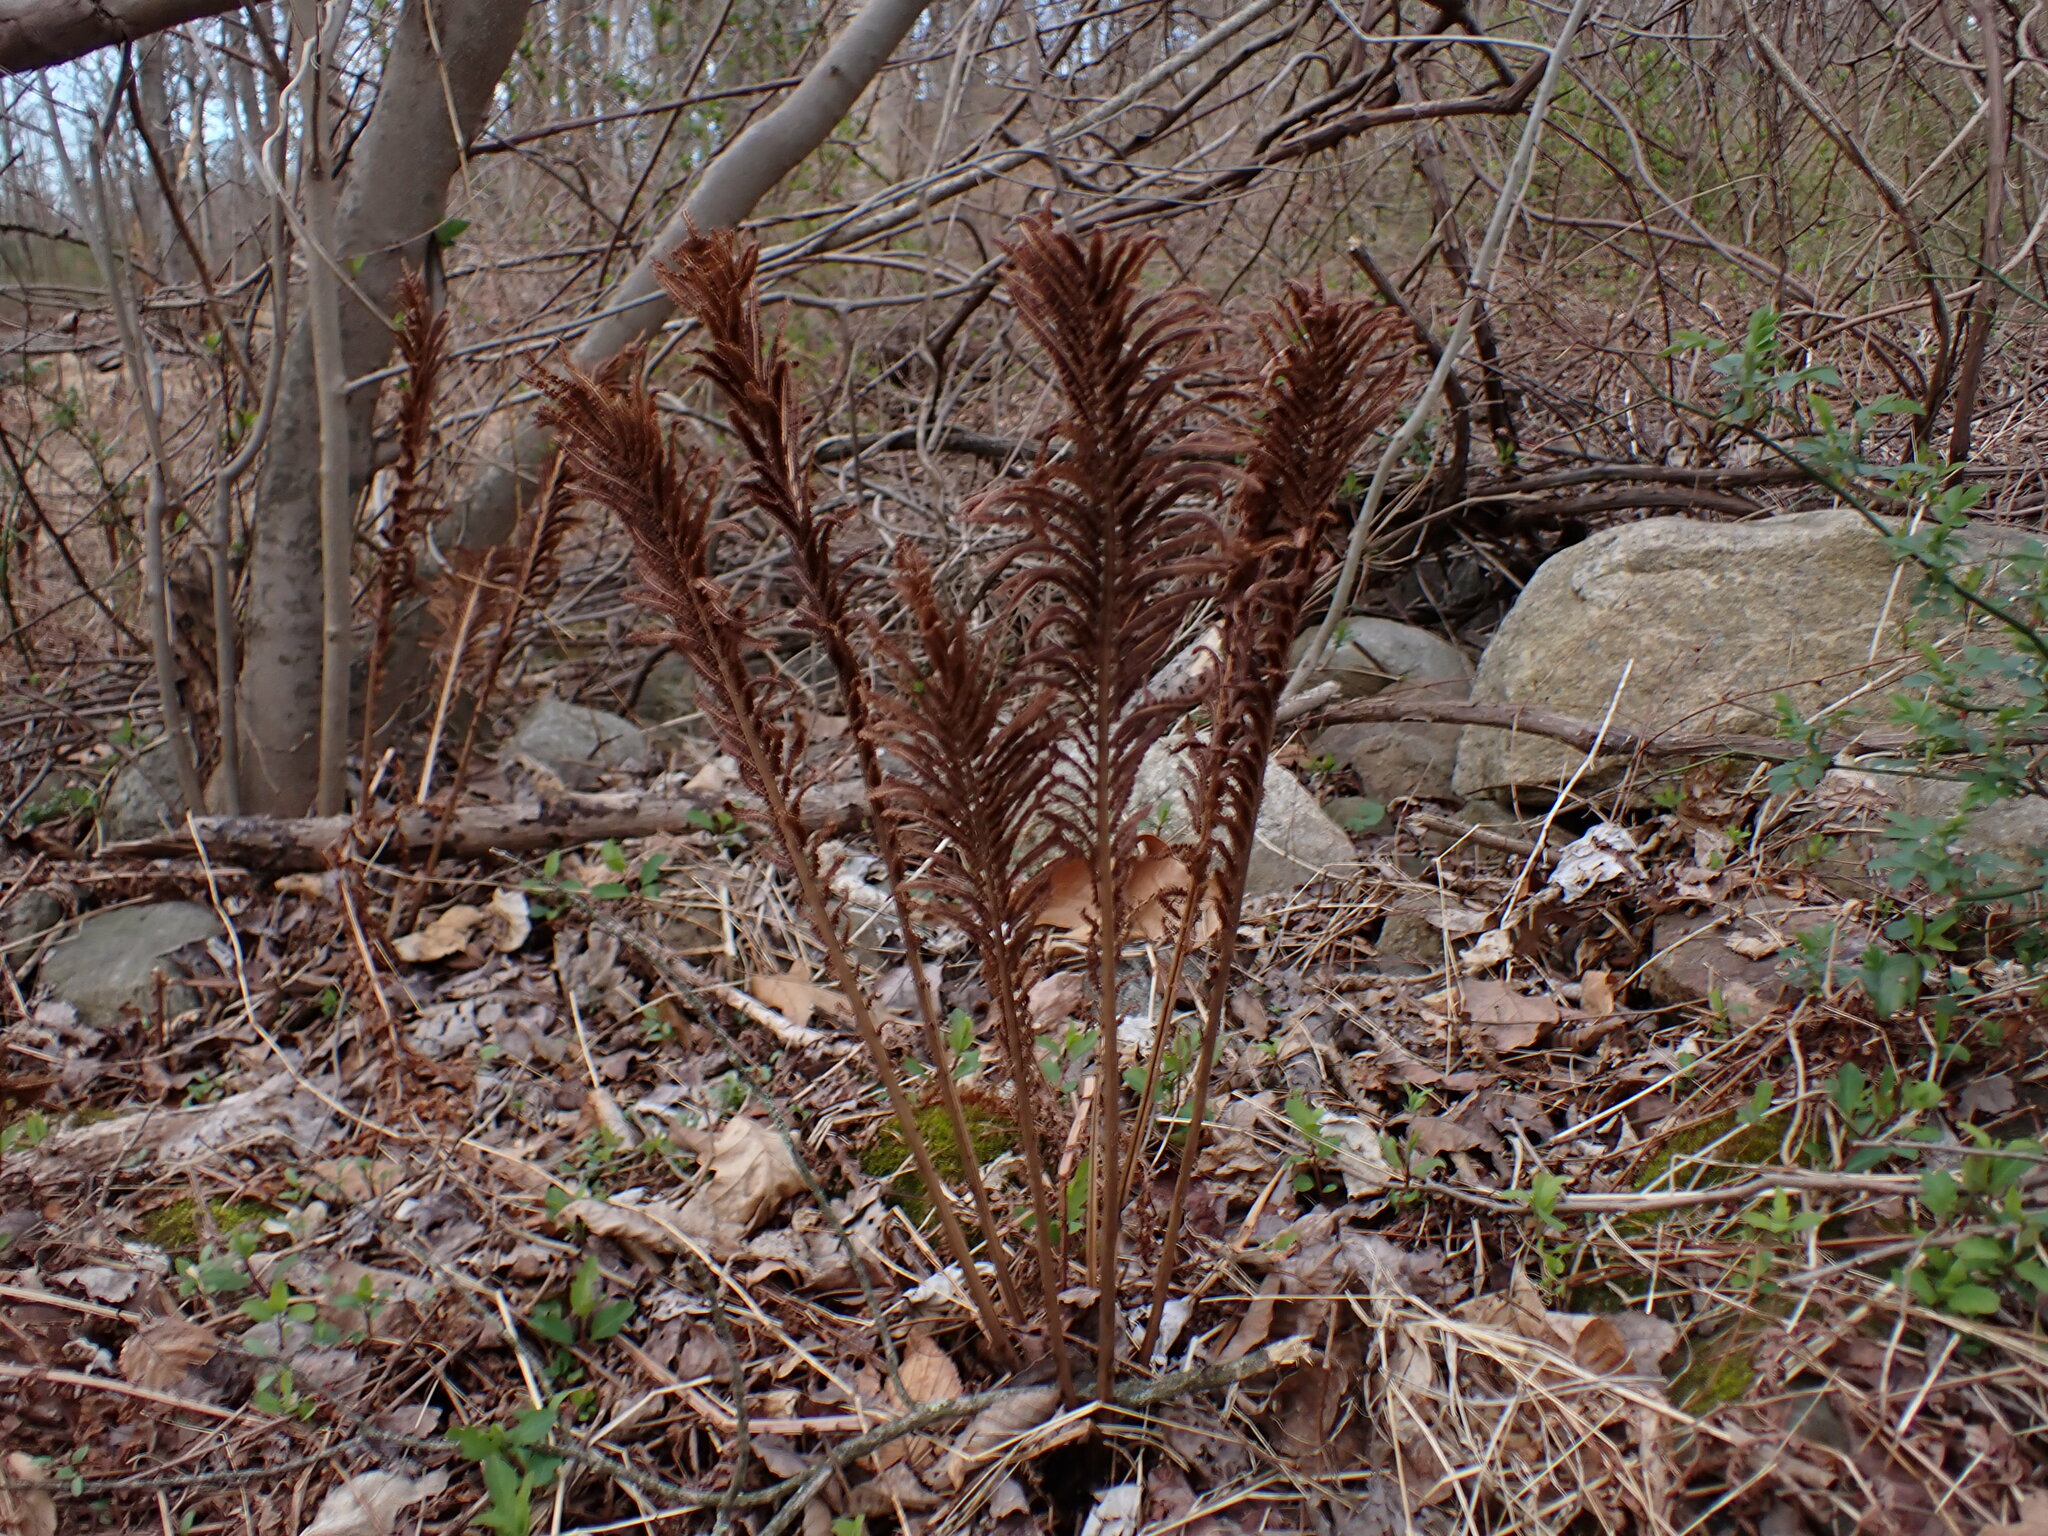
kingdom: Plantae
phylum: Tracheophyta
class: Polypodiopsida
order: Polypodiales
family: Onocleaceae
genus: Matteuccia
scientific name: Matteuccia struthiopteris
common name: Ostrich fern
